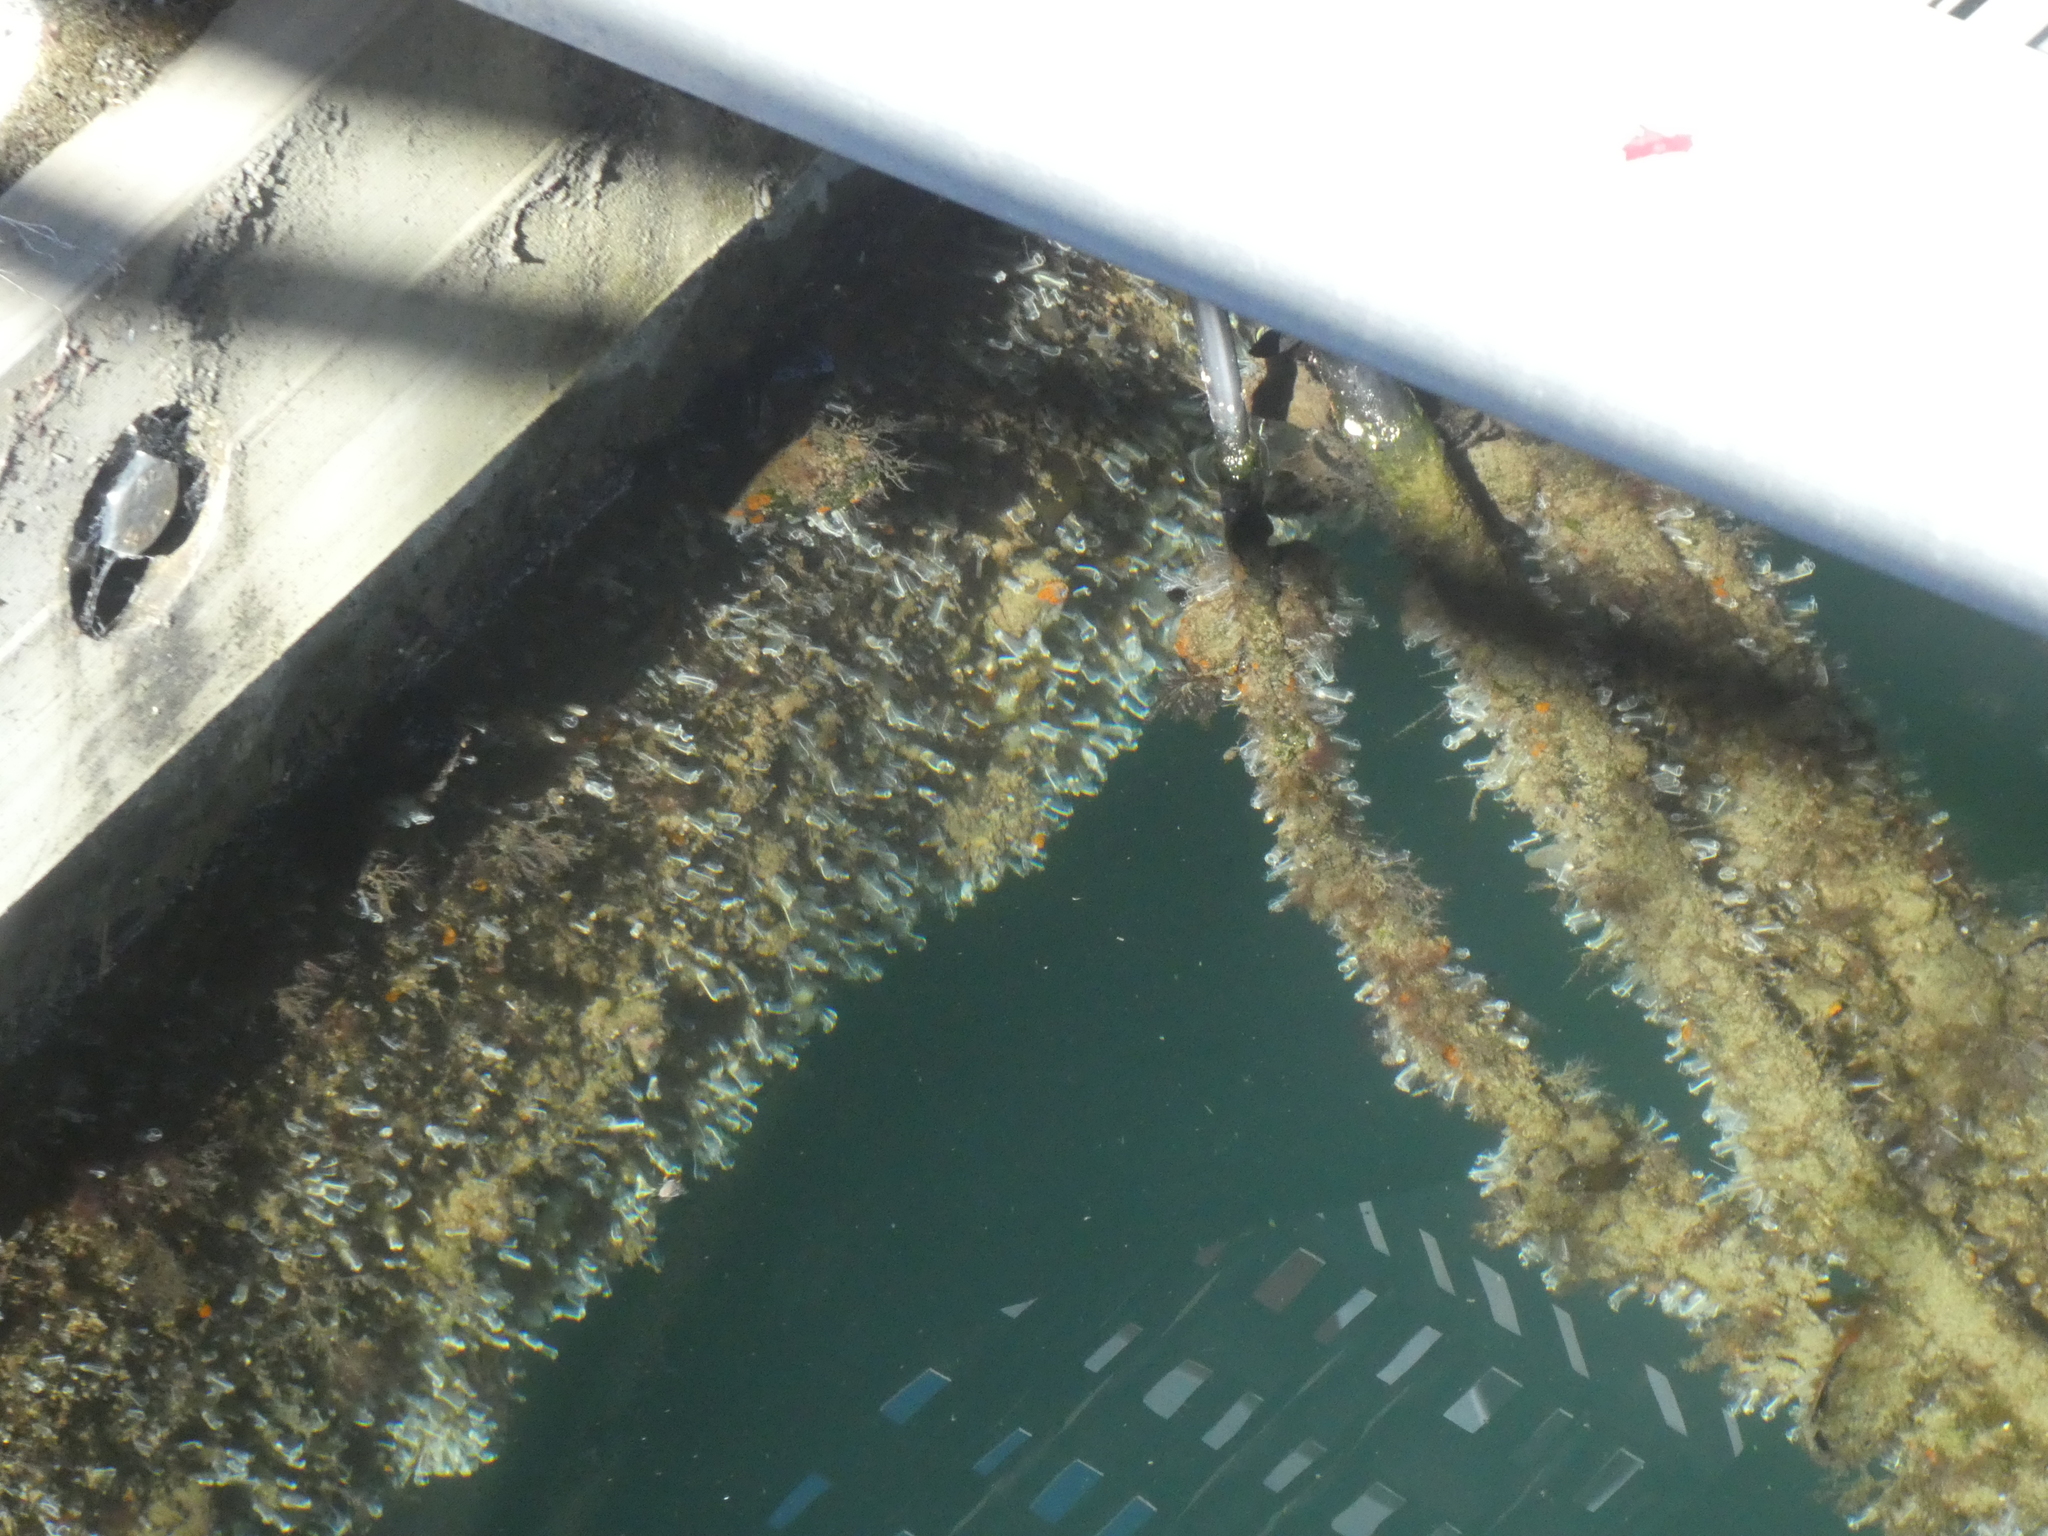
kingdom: Animalia
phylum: Chordata
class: Ascidiacea
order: Aplousobranchia
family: Clavelinidae
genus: Clavelina
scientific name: Clavelina lepadiformis
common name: Light bulb tunicate
